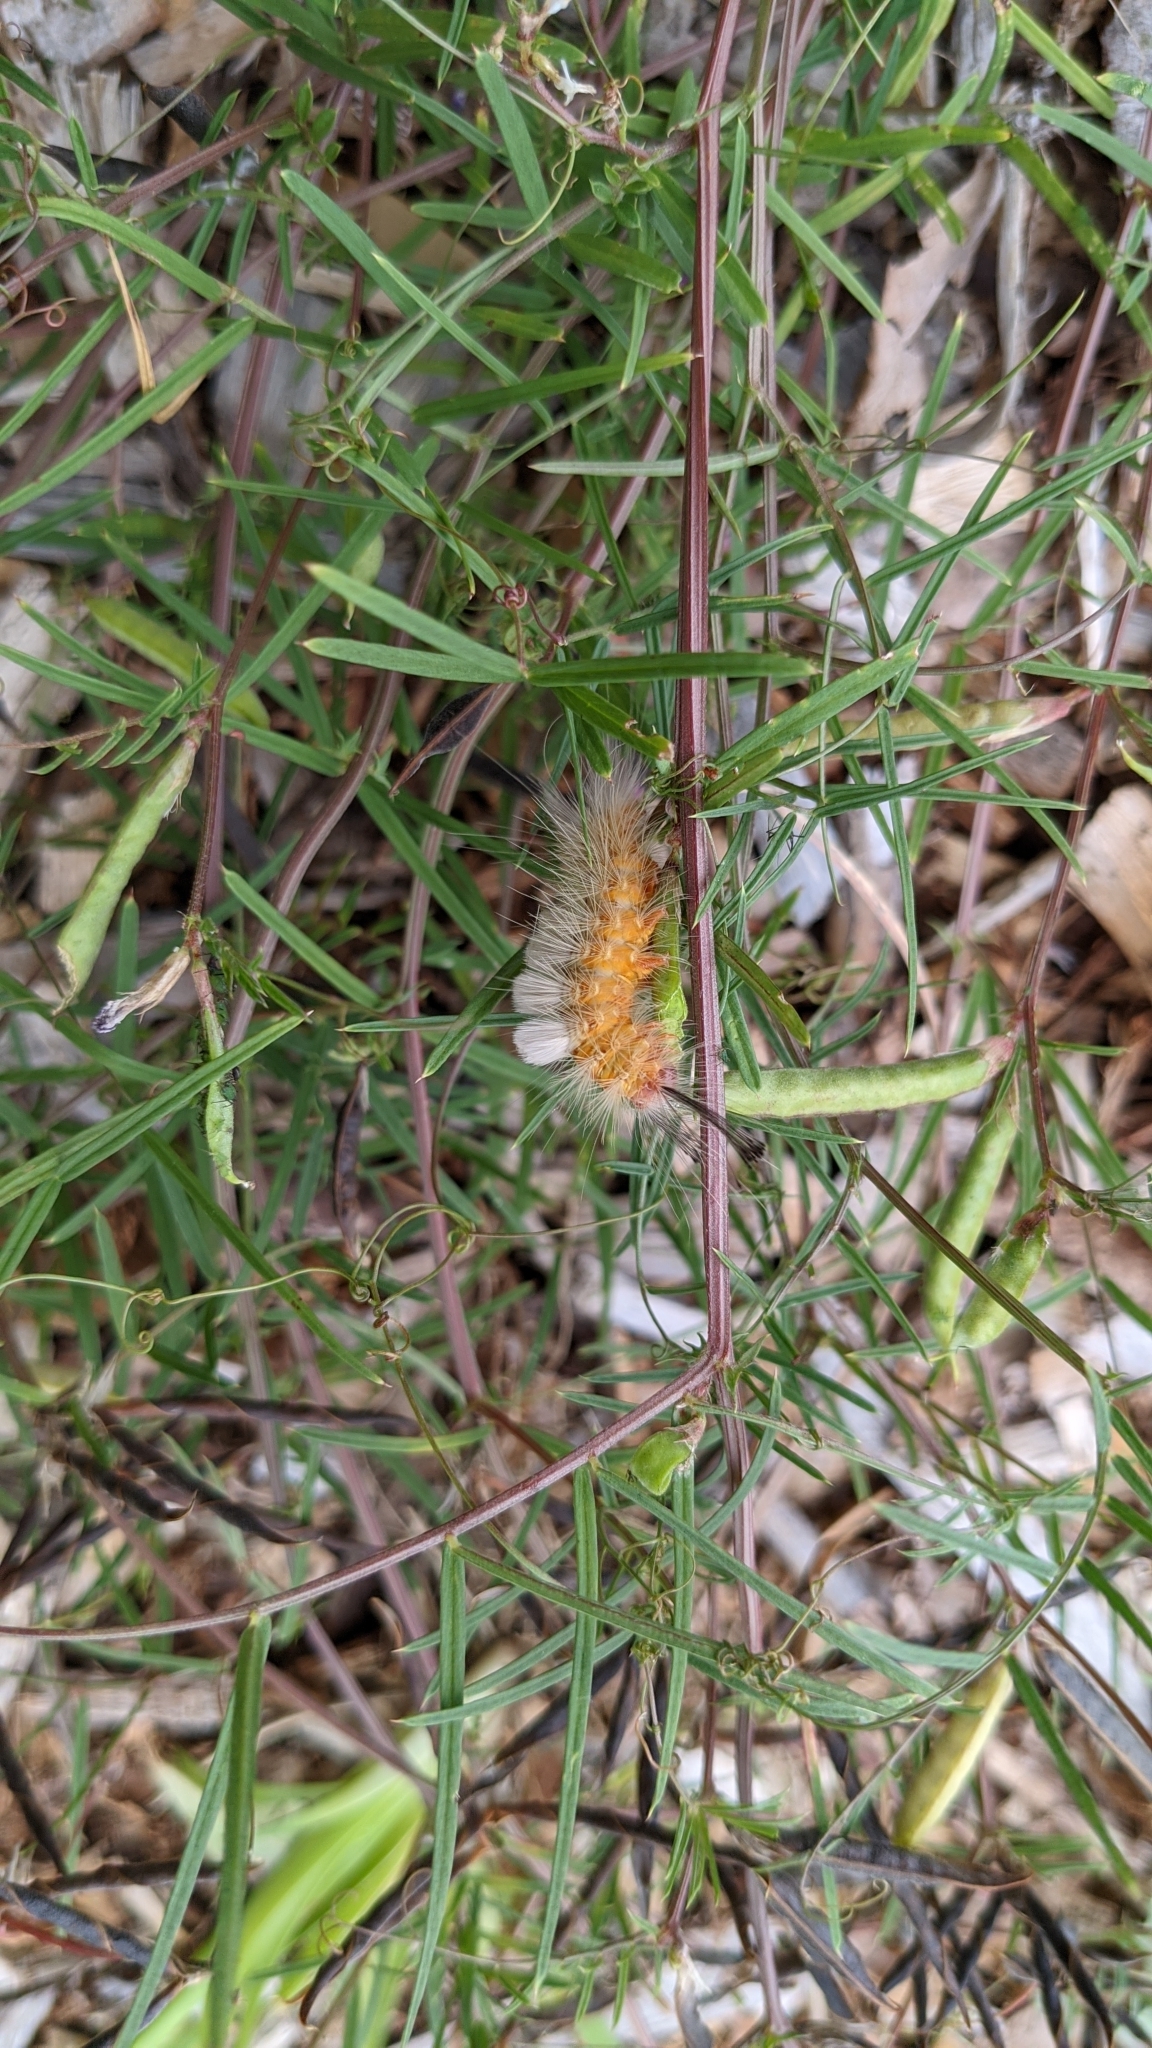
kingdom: Animalia
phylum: Arthropoda
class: Insecta
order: Lepidoptera
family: Erebidae
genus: Orgyia
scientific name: Orgyia
